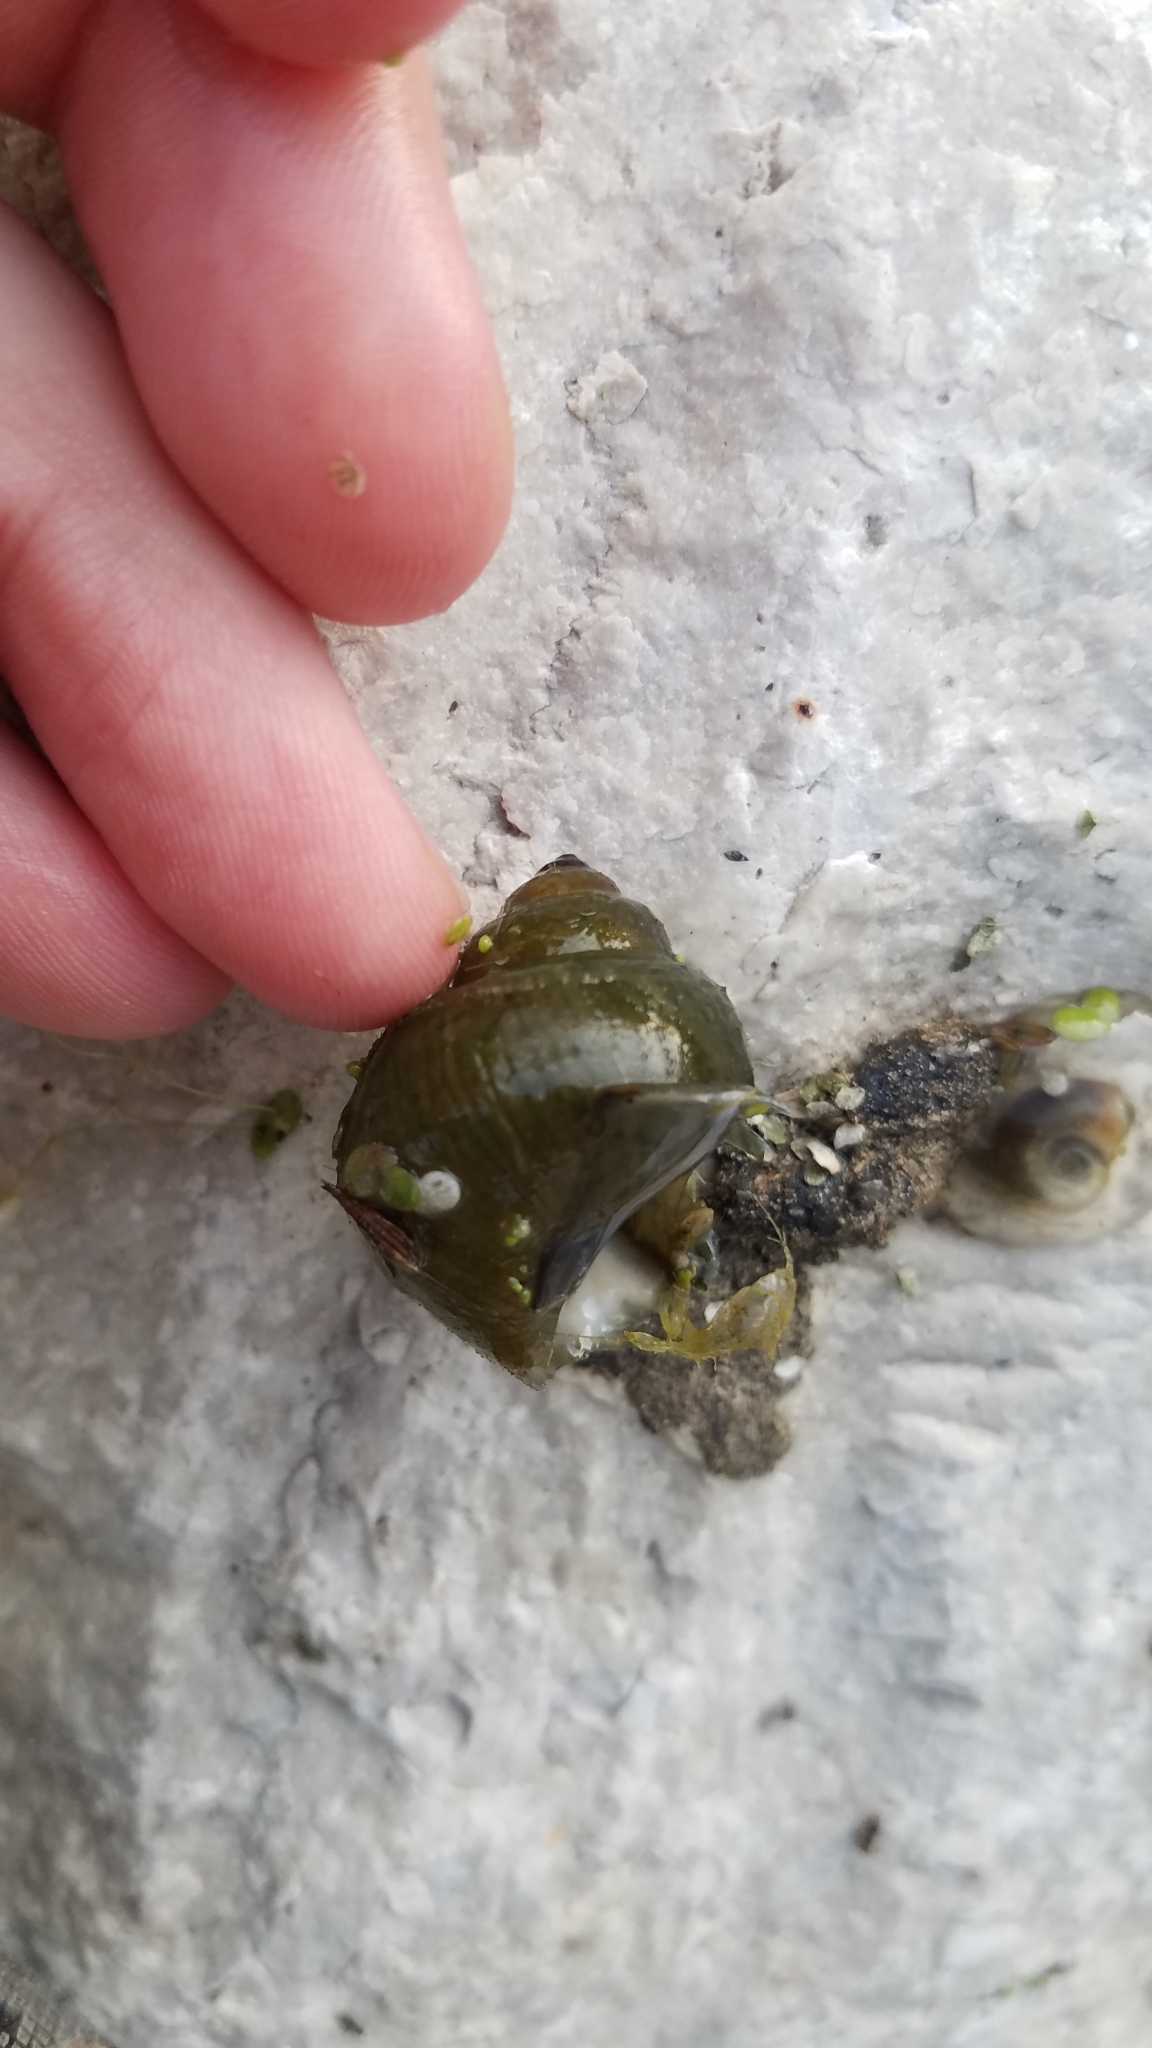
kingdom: Animalia
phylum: Mollusca
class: Gastropoda
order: Architaenioglossa
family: Viviparidae
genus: Cipangopaludina
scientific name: Cipangopaludina chinensis
